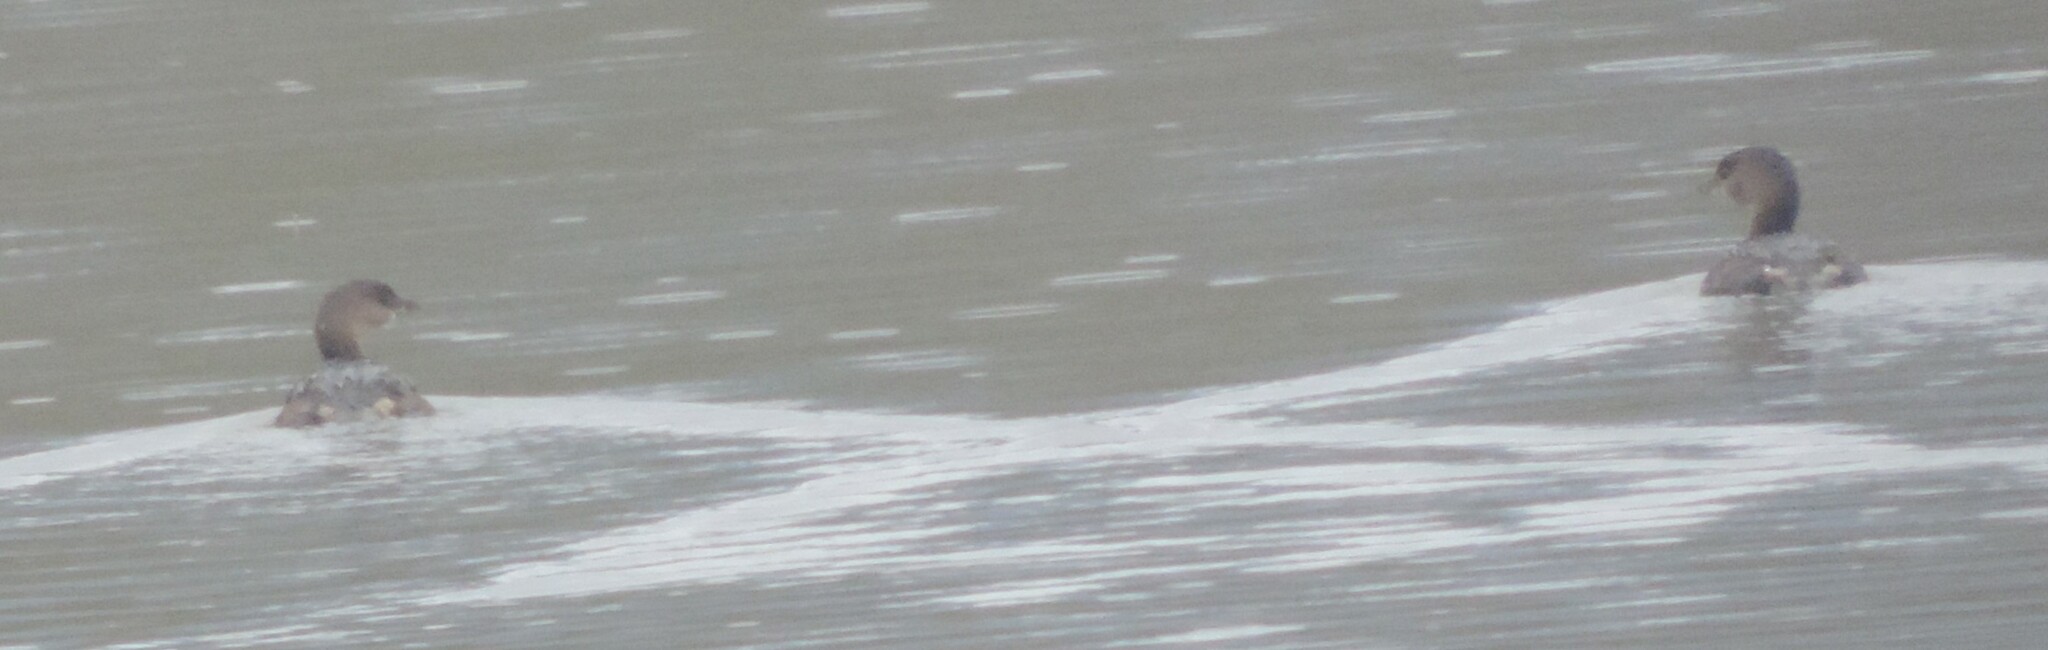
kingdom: Animalia
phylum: Chordata
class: Aves
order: Podicipediformes
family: Podicipedidae
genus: Podilymbus
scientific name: Podilymbus podiceps
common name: Pied-billed grebe
